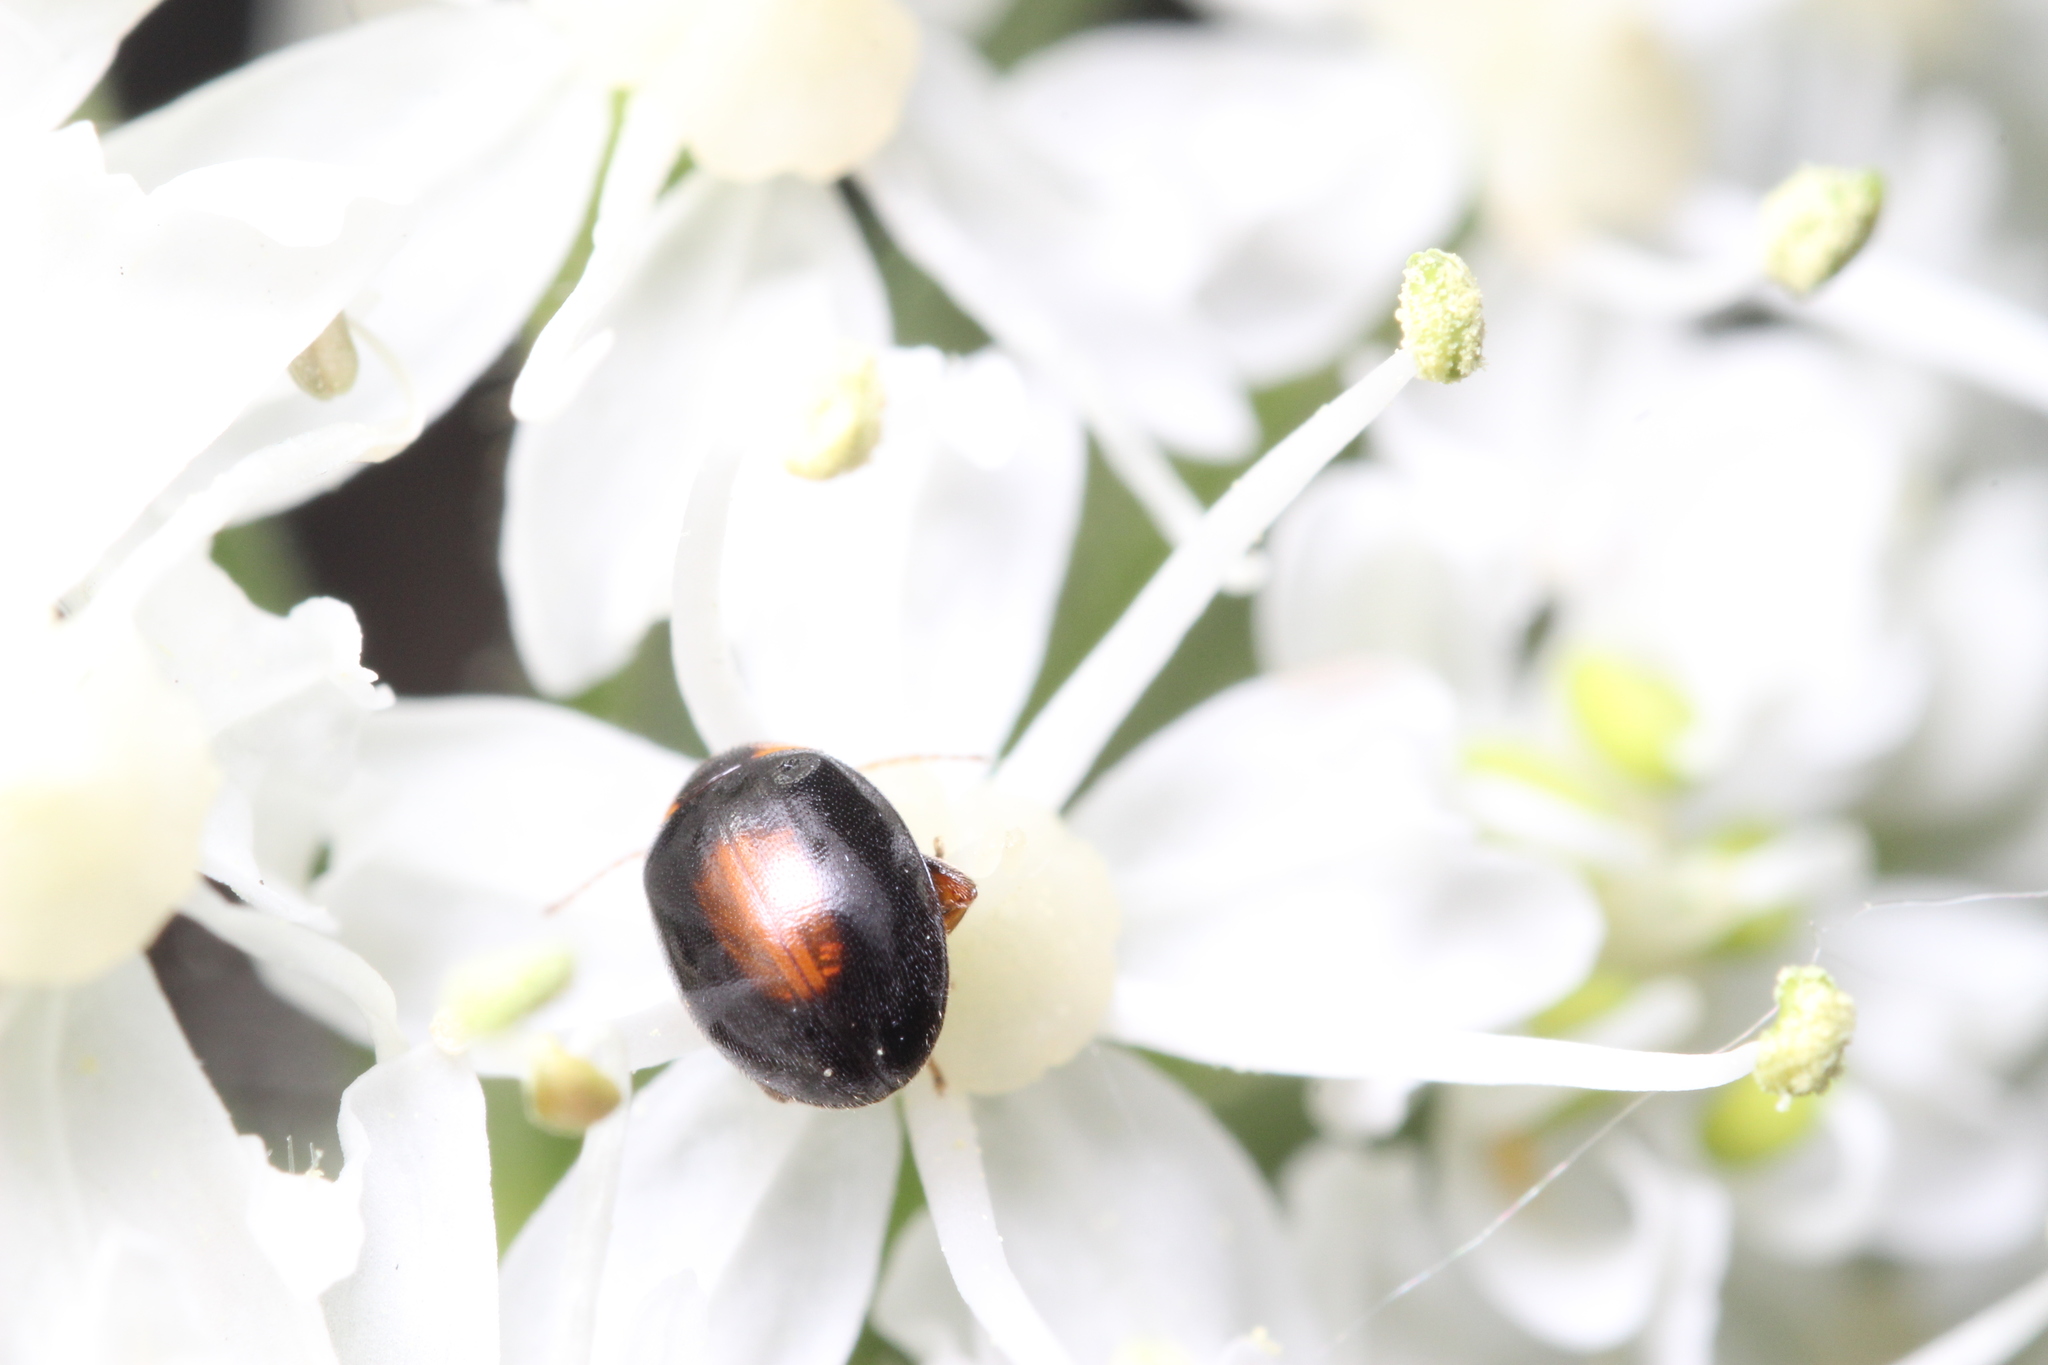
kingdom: Animalia
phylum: Arthropoda
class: Insecta
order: Coleoptera
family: Scirtidae
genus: Scirtes
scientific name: Scirtes orbiculatus
